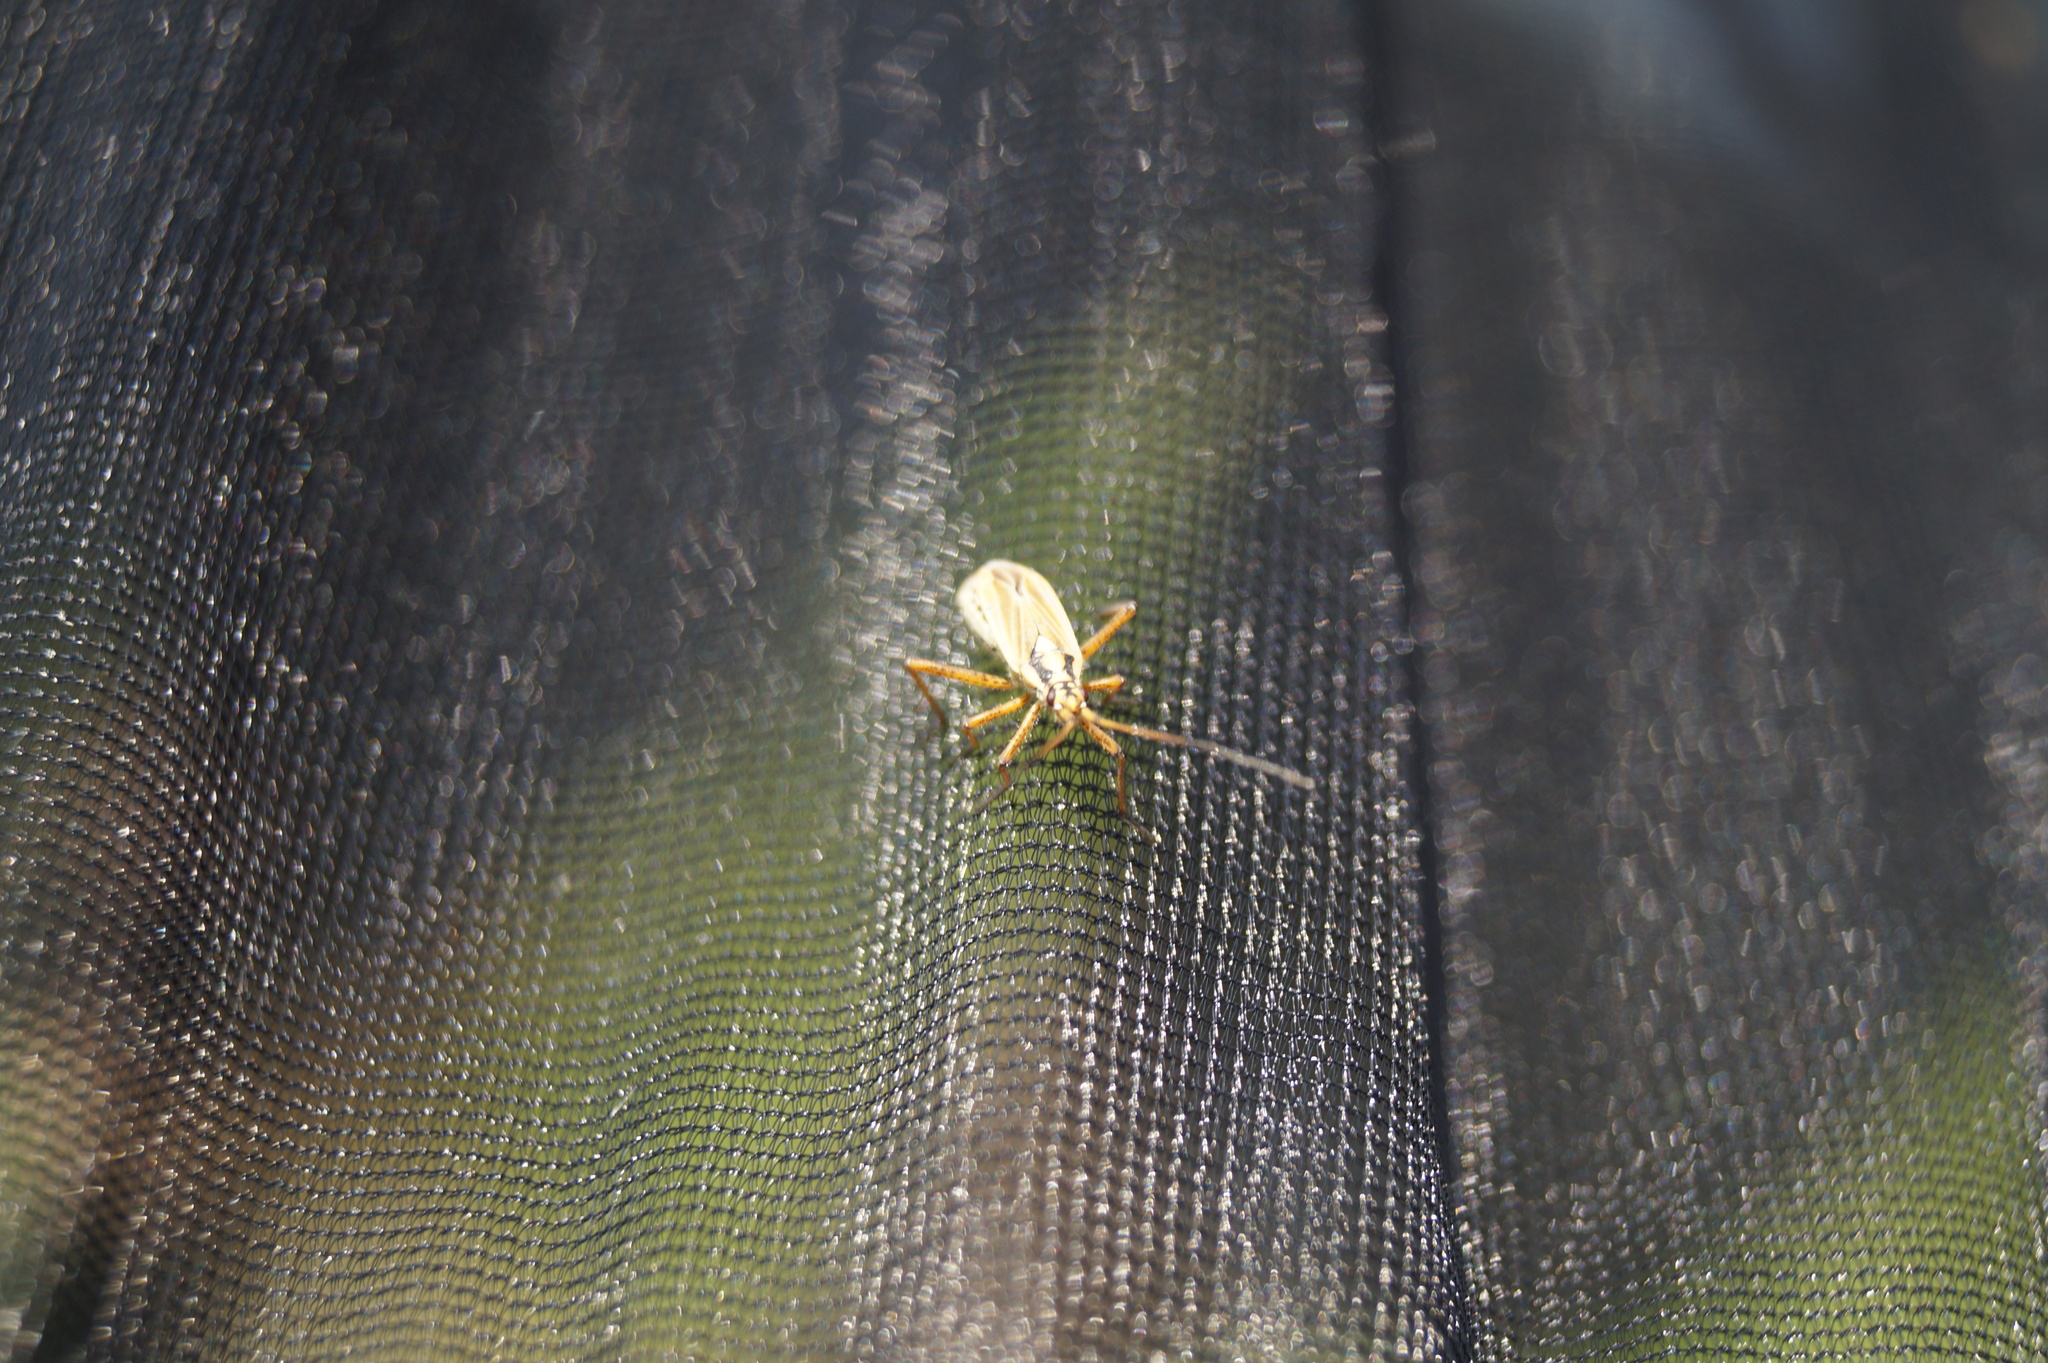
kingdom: Animalia
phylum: Arthropoda
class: Insecta
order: Hemiptera
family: Miridae
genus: Leptopterna
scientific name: Leptopterna dolabrata
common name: Meadow plant bug
